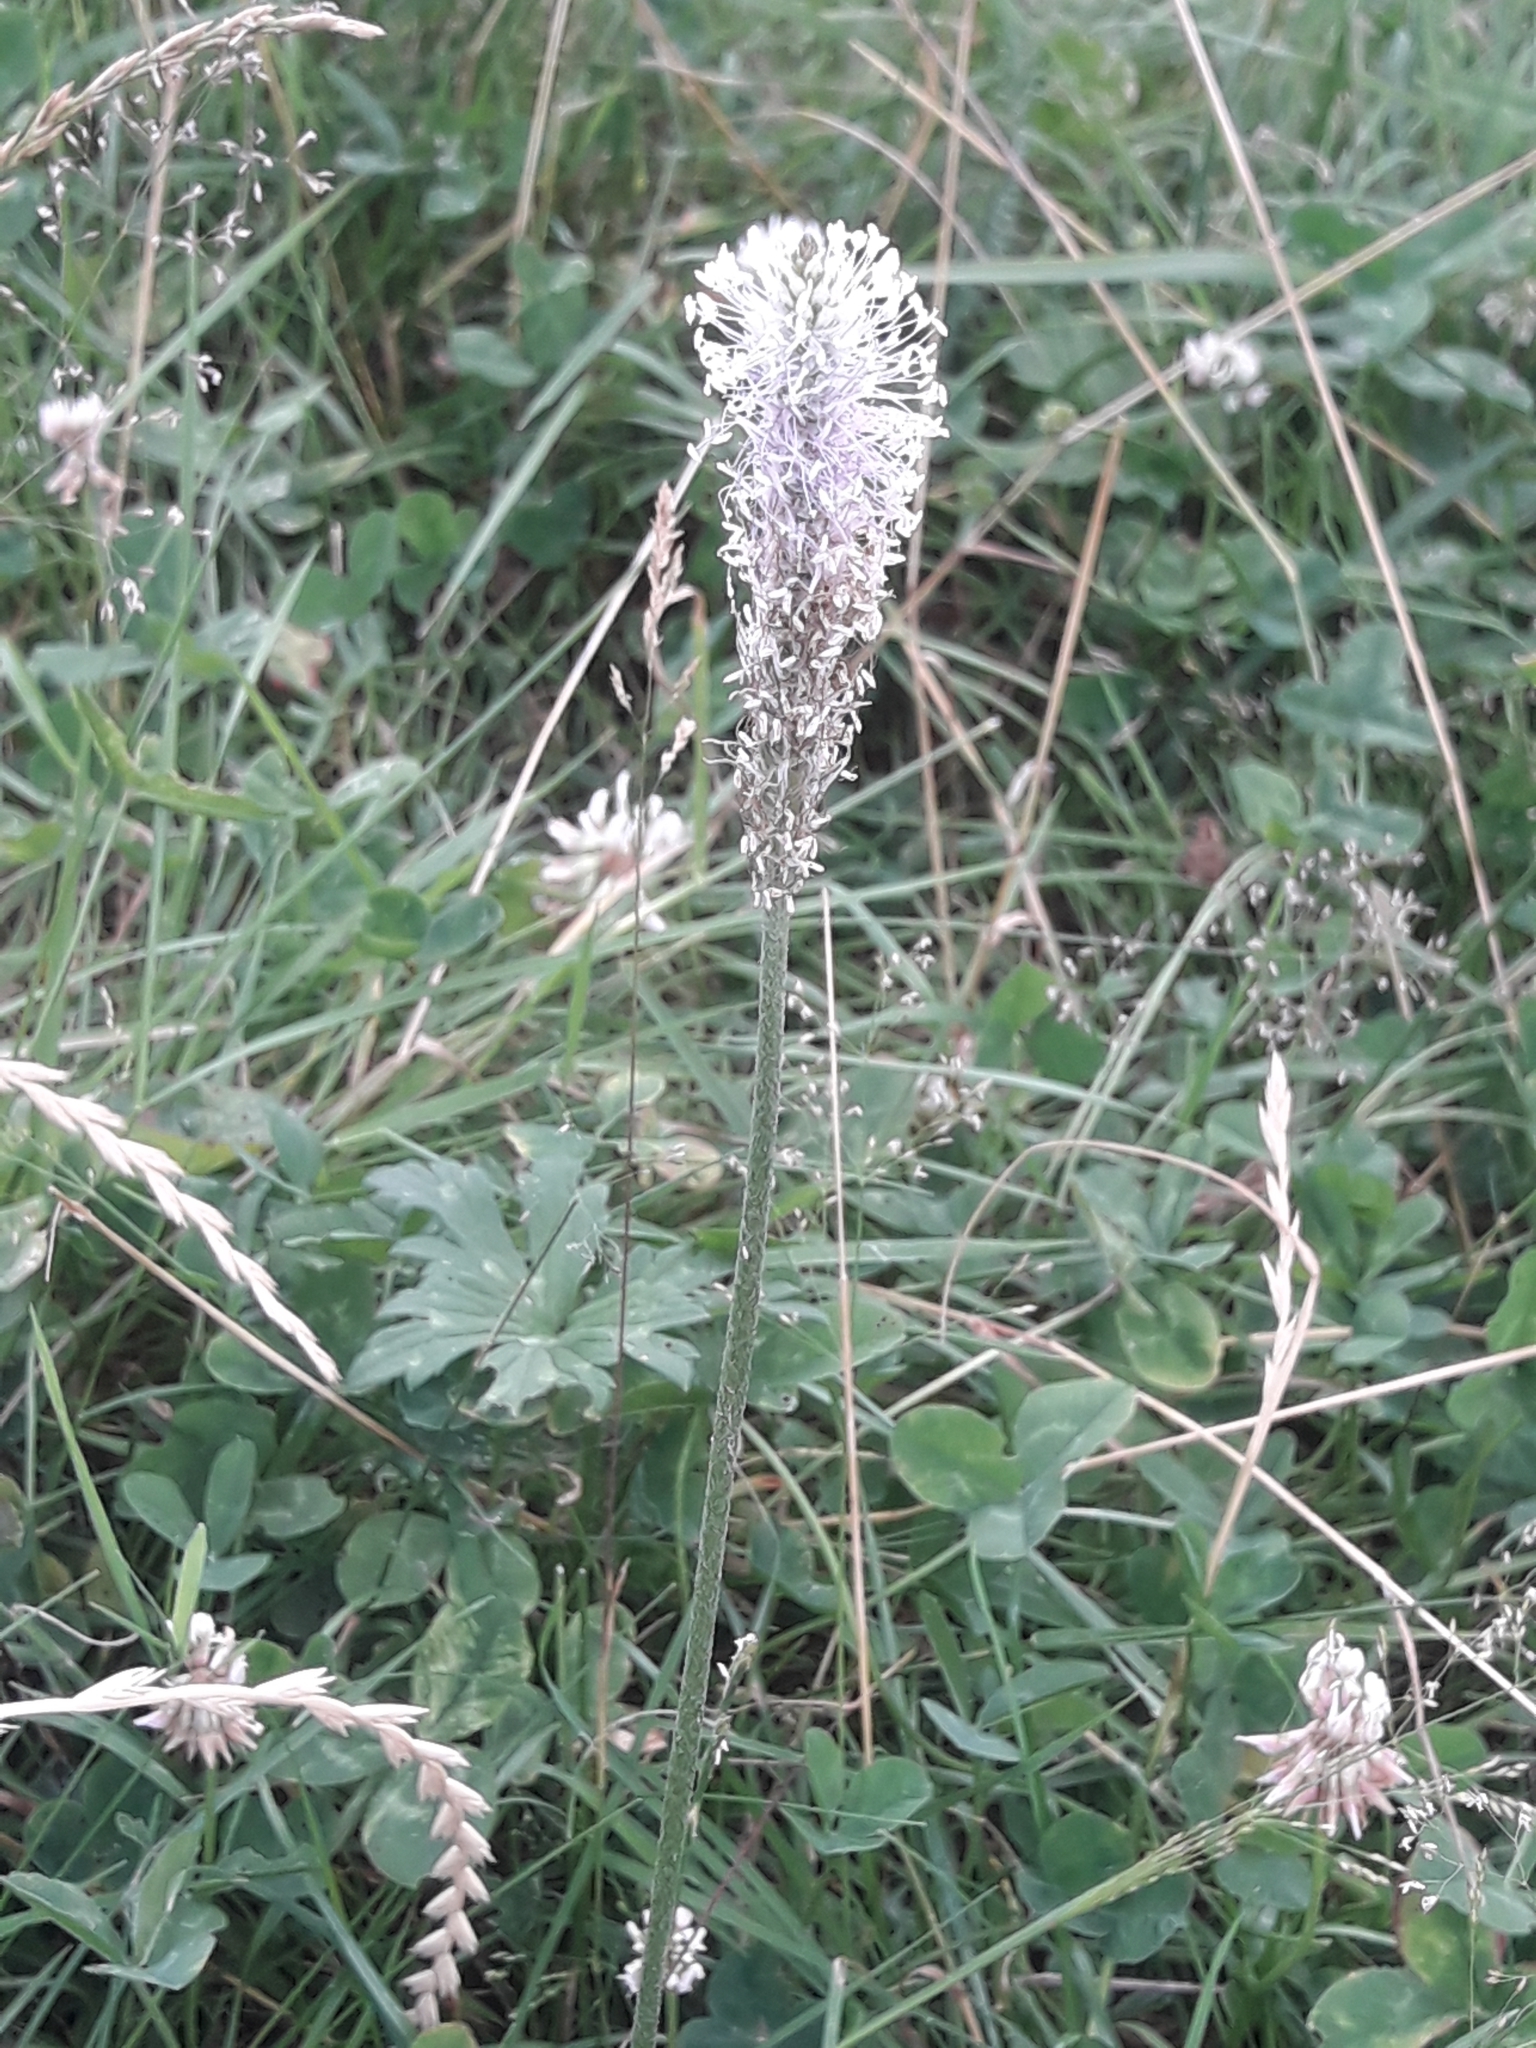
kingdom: Plantae
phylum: Tracheophyta
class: Magnoliopsida
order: Lamiales
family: Plantaginaceae
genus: Plantago
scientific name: Plantago media
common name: Hoary plantain
